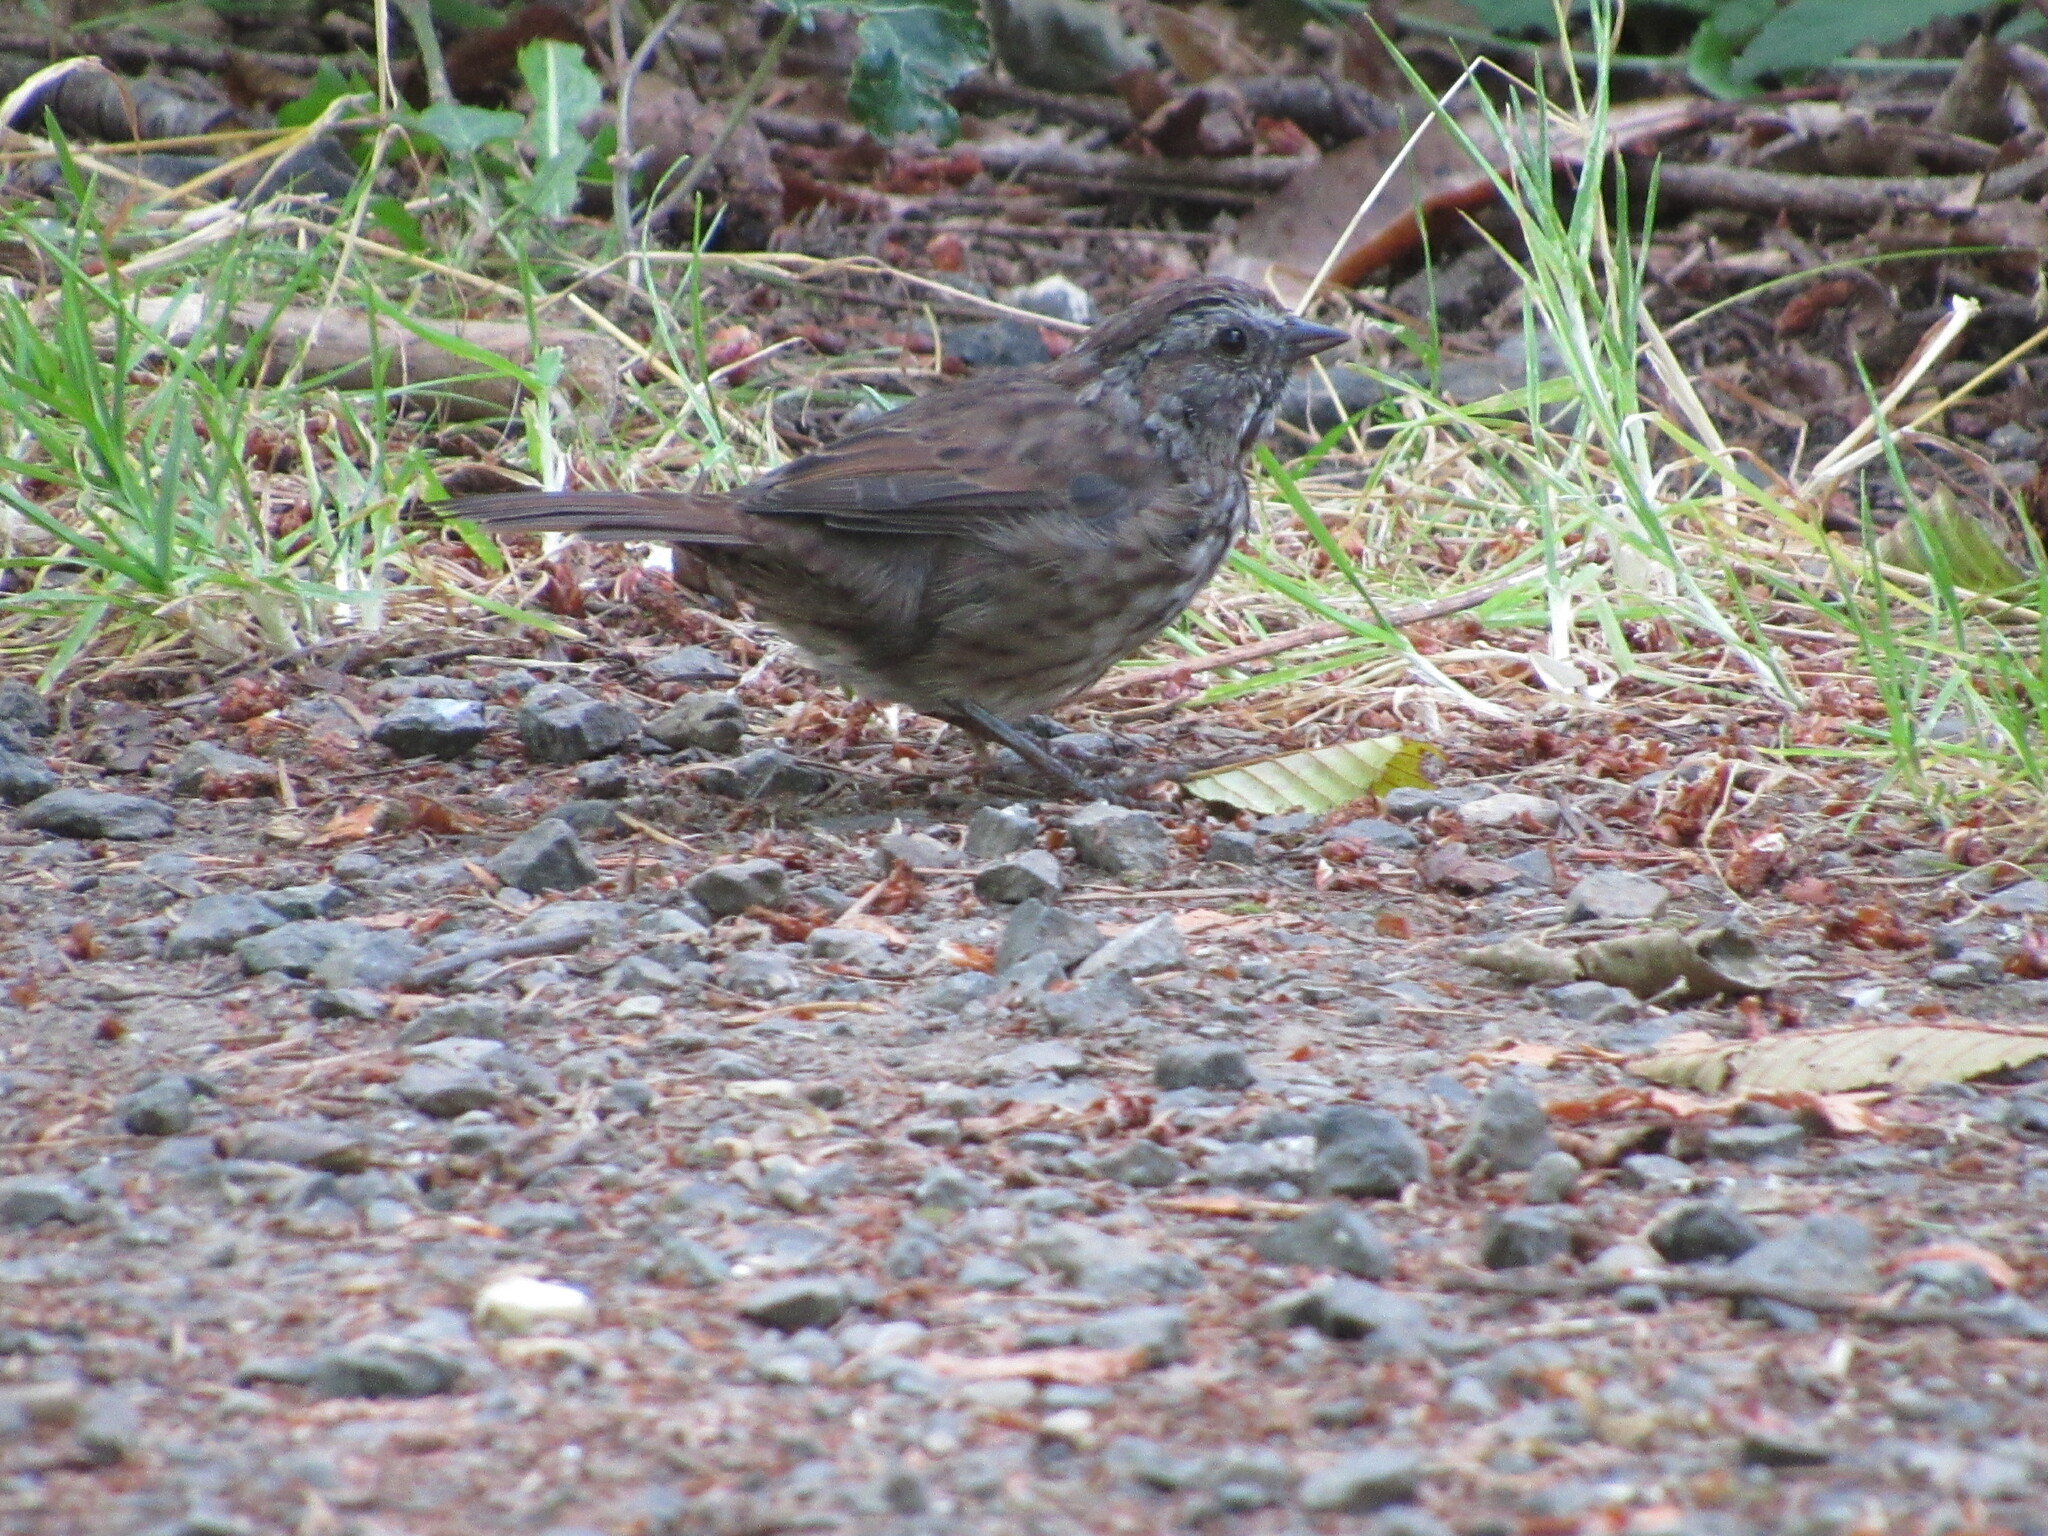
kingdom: Animalia
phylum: Chordata
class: Aves
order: Passeriformes
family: Passerellidae
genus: Melospiza
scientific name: Melospiza melodia
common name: Song sparrow
